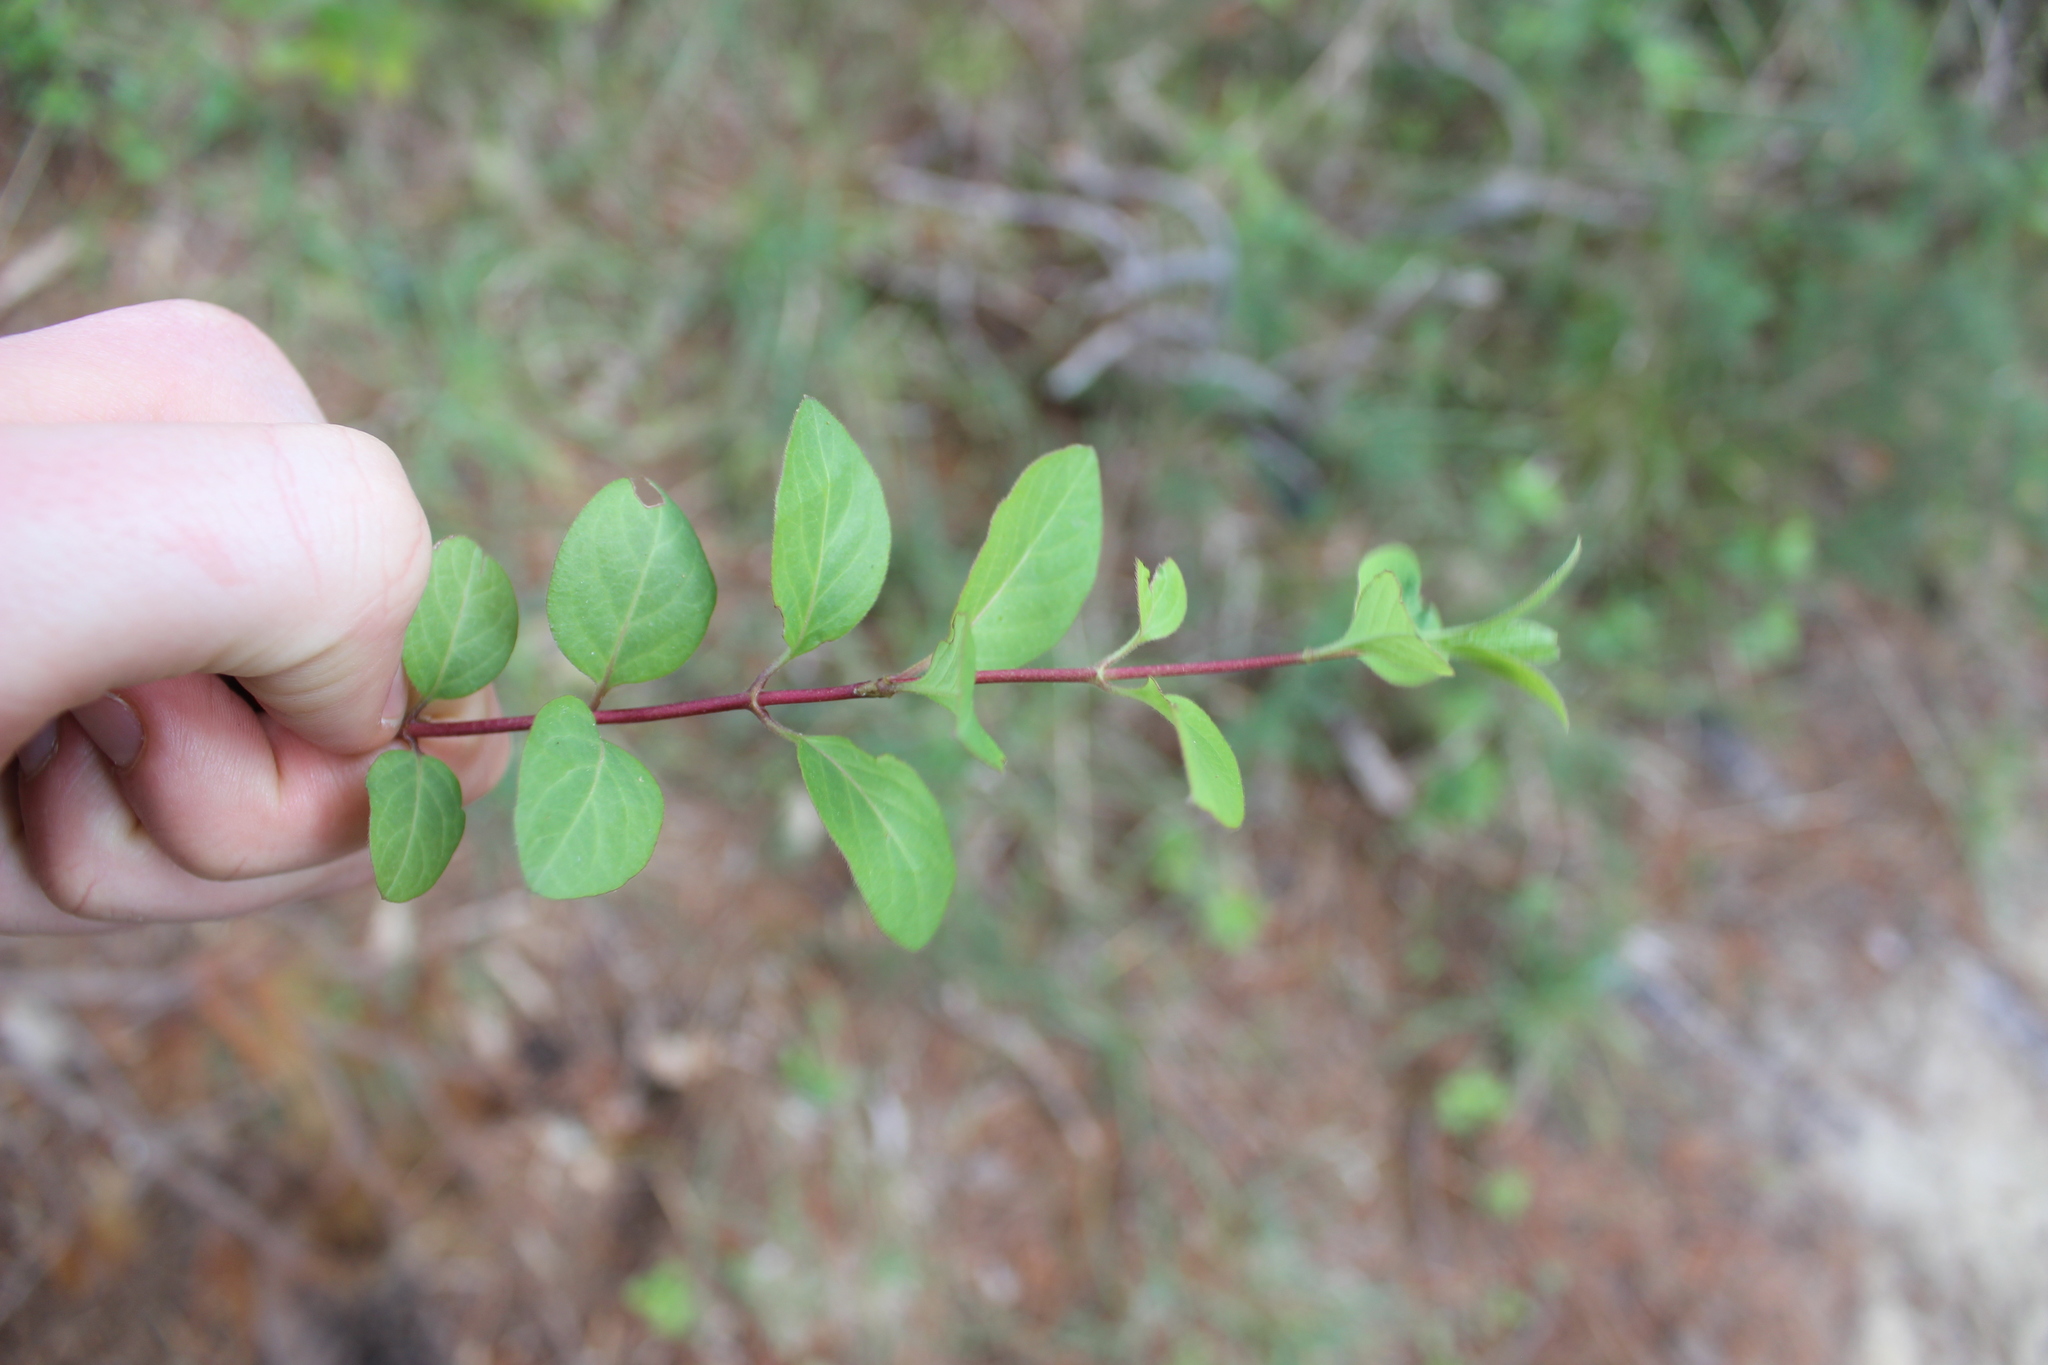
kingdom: Plantae
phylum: Tracheophyta
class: Magnoliopsida
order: Dipsacales
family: Caprifoliaceae
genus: Lonicera
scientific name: Lonicera japonica
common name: Japanese honeysuckle
